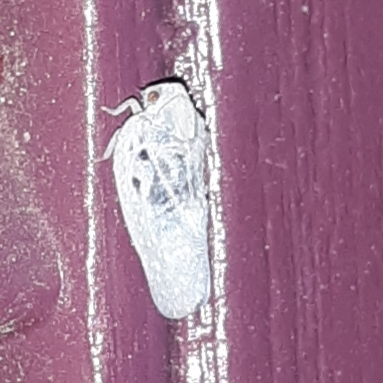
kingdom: Animalia
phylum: Arthropoda
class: Insecta
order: Hemiptera
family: Flatidae
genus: Metcalfa
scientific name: Metcalfa pruinosa
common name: Citrus flatid planthopper
